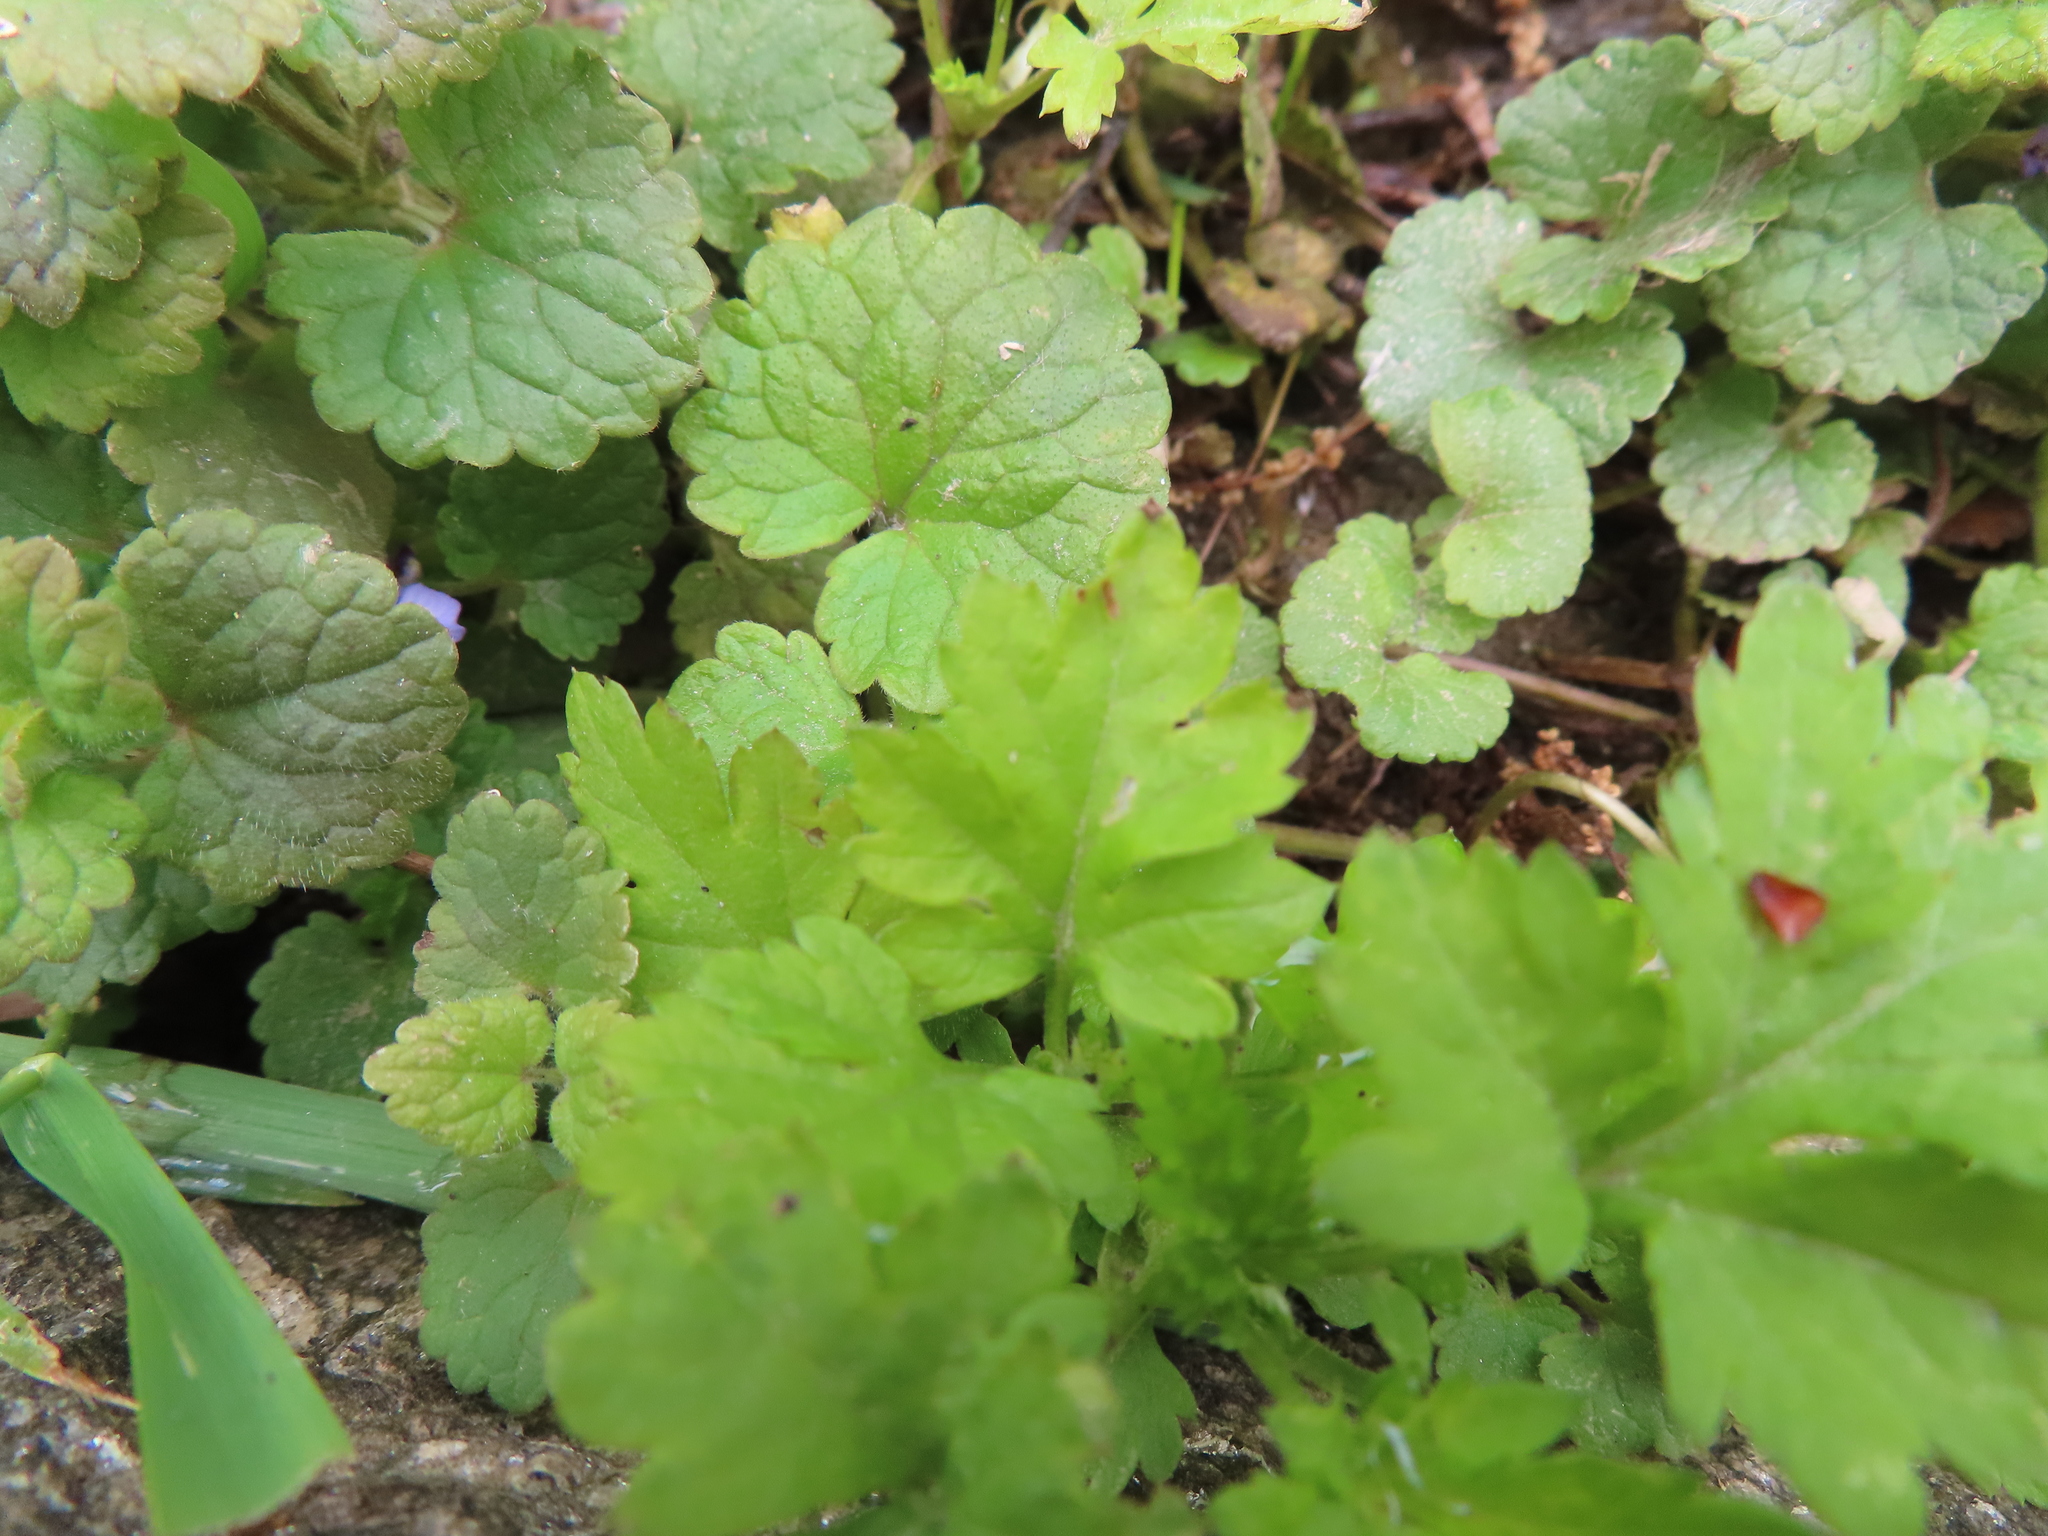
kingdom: Plantae
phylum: Tracheophyta
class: Magnoliopsida
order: Lamiales
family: Lamiaceae
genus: Glechoma
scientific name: Glechoma hederacea
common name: Ground ivy
